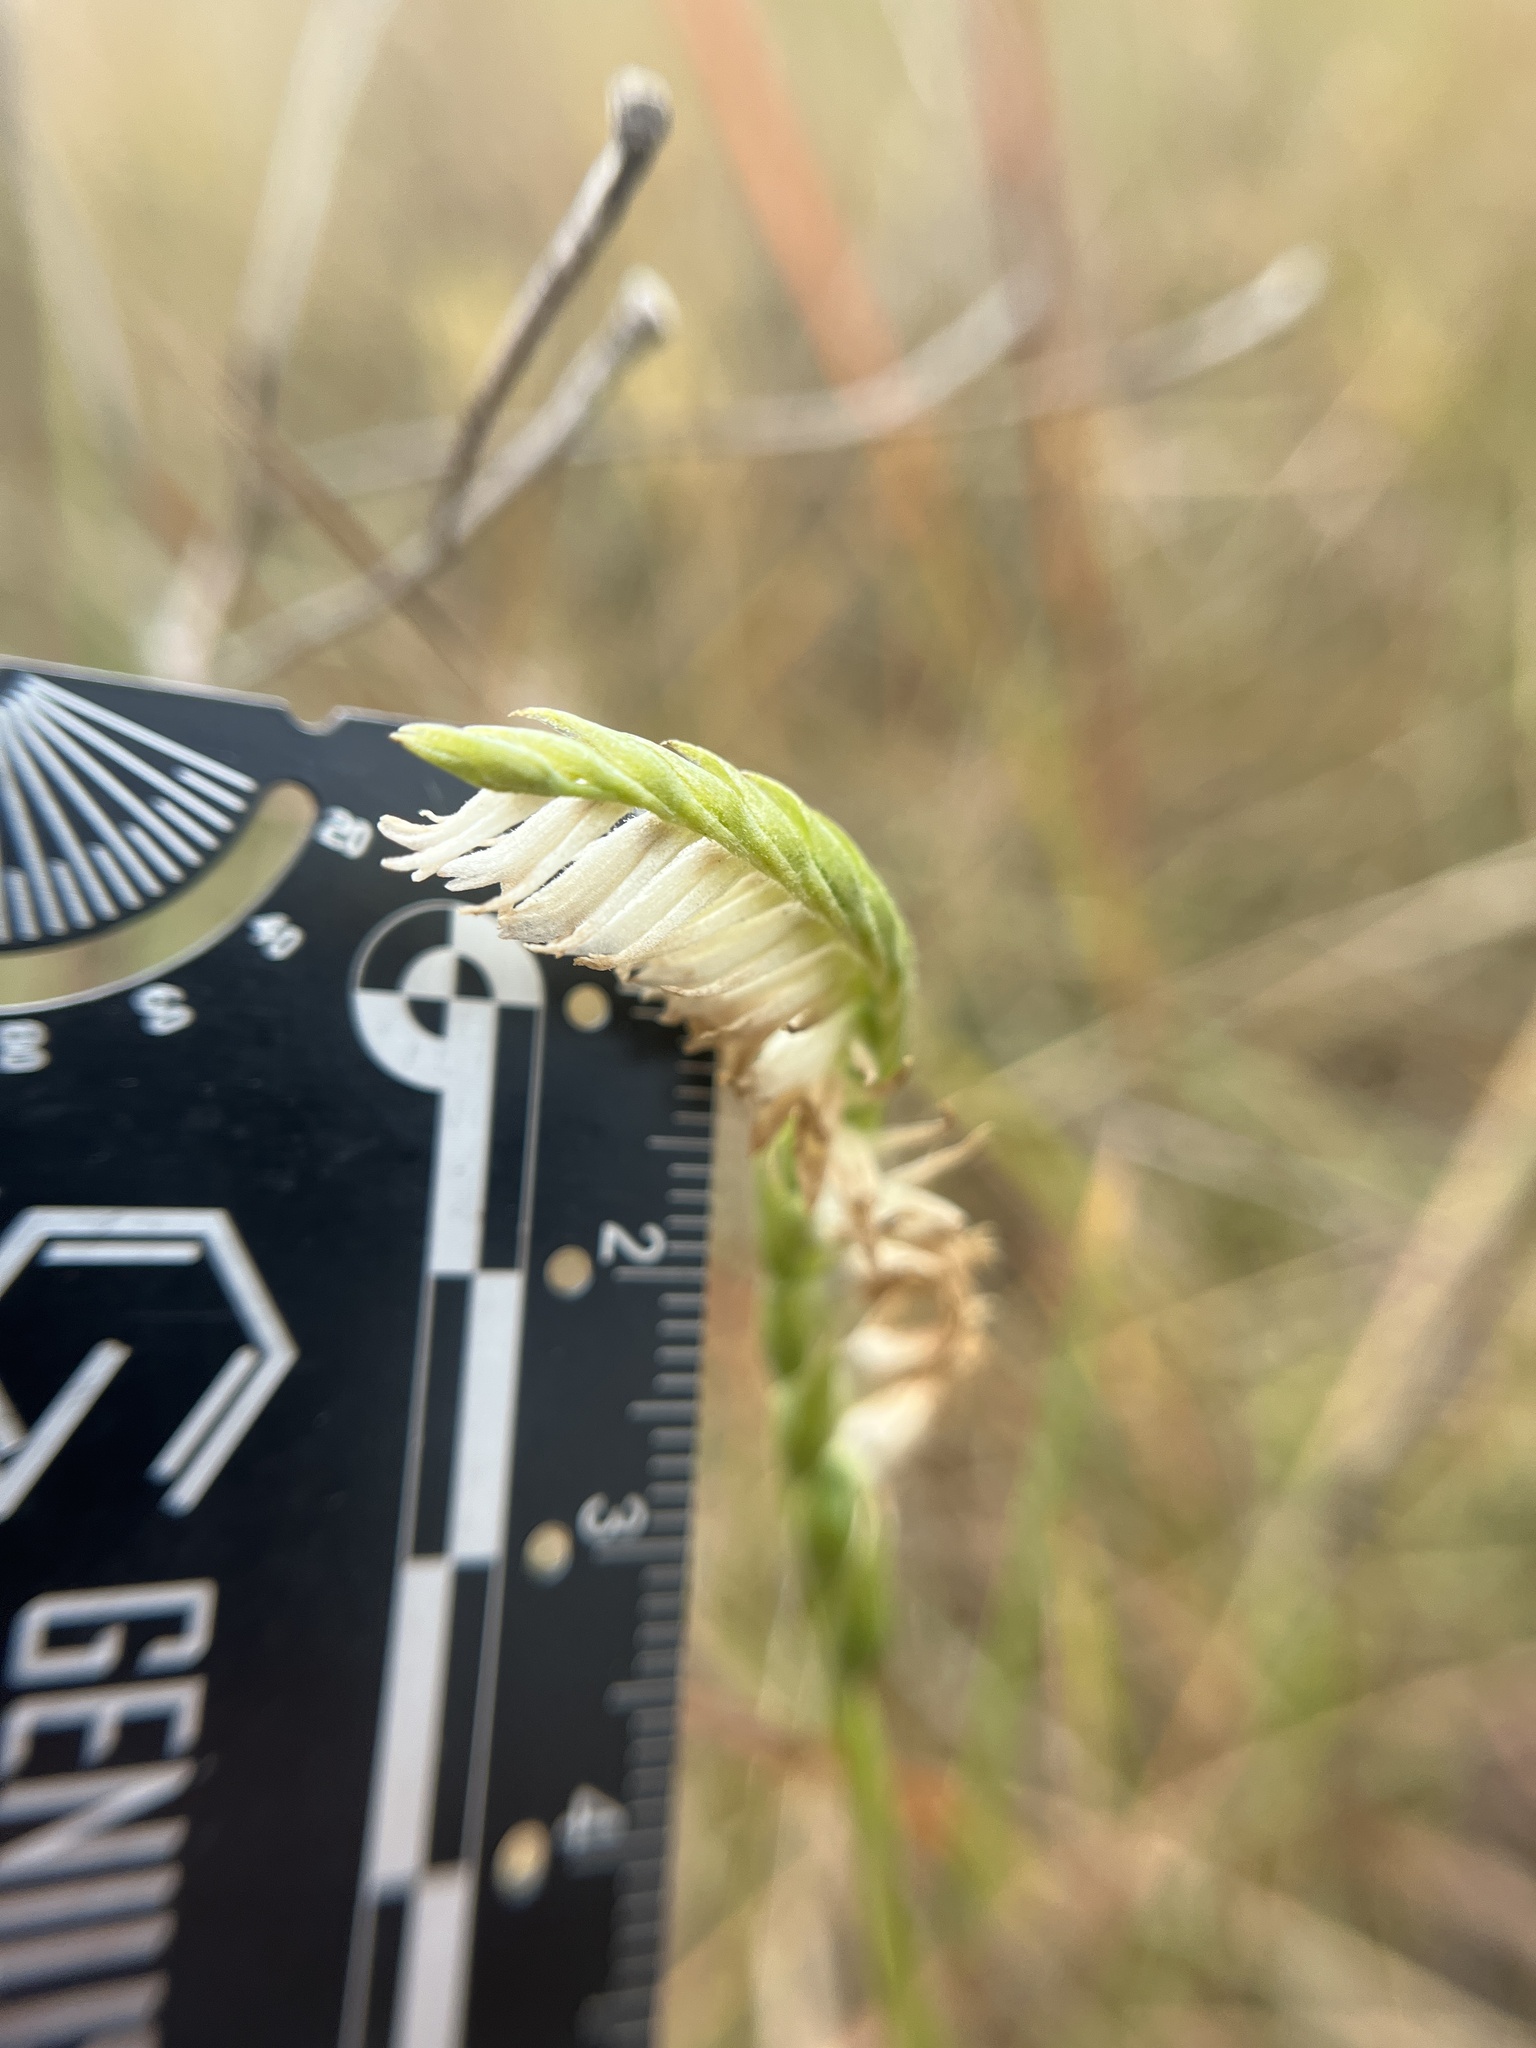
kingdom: Plantae
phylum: Tracheophyta
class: Liliopsida
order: Asparagales
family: Orchidaceae
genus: Spiranthes
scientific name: Spiranthes longilabris
